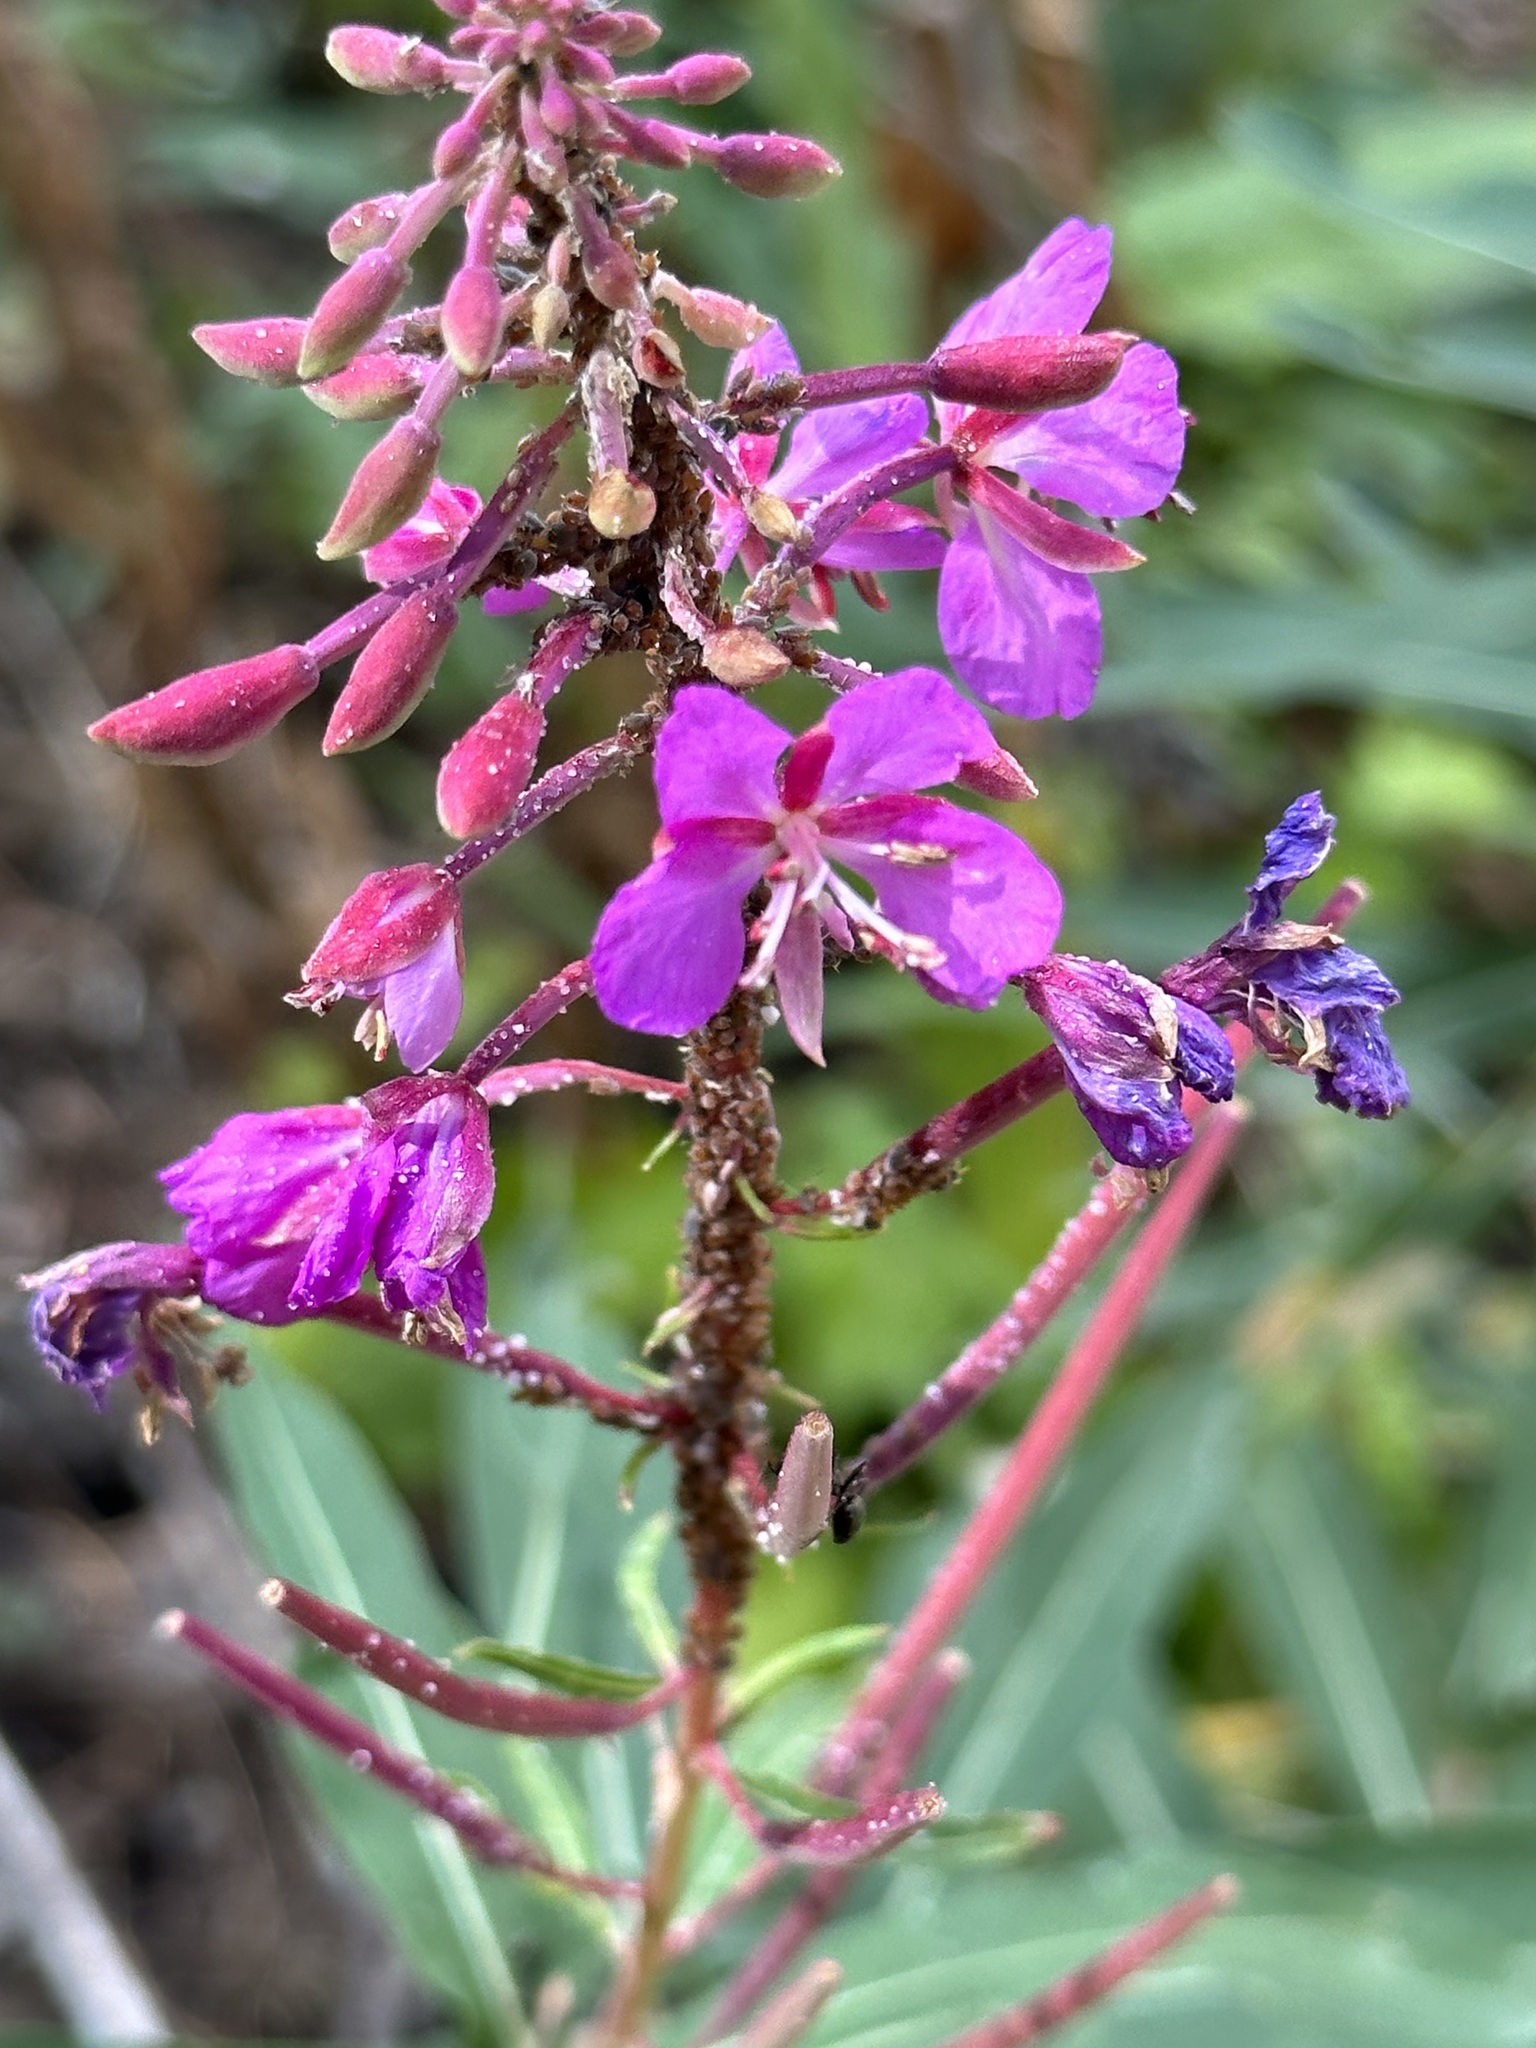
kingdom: Plantae
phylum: Tracheophyta
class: Magnoliopsida
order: Myrtales
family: Onagraceae
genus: Chamaenerion
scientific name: Chamaenerion angustifolium
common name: Fireweed
